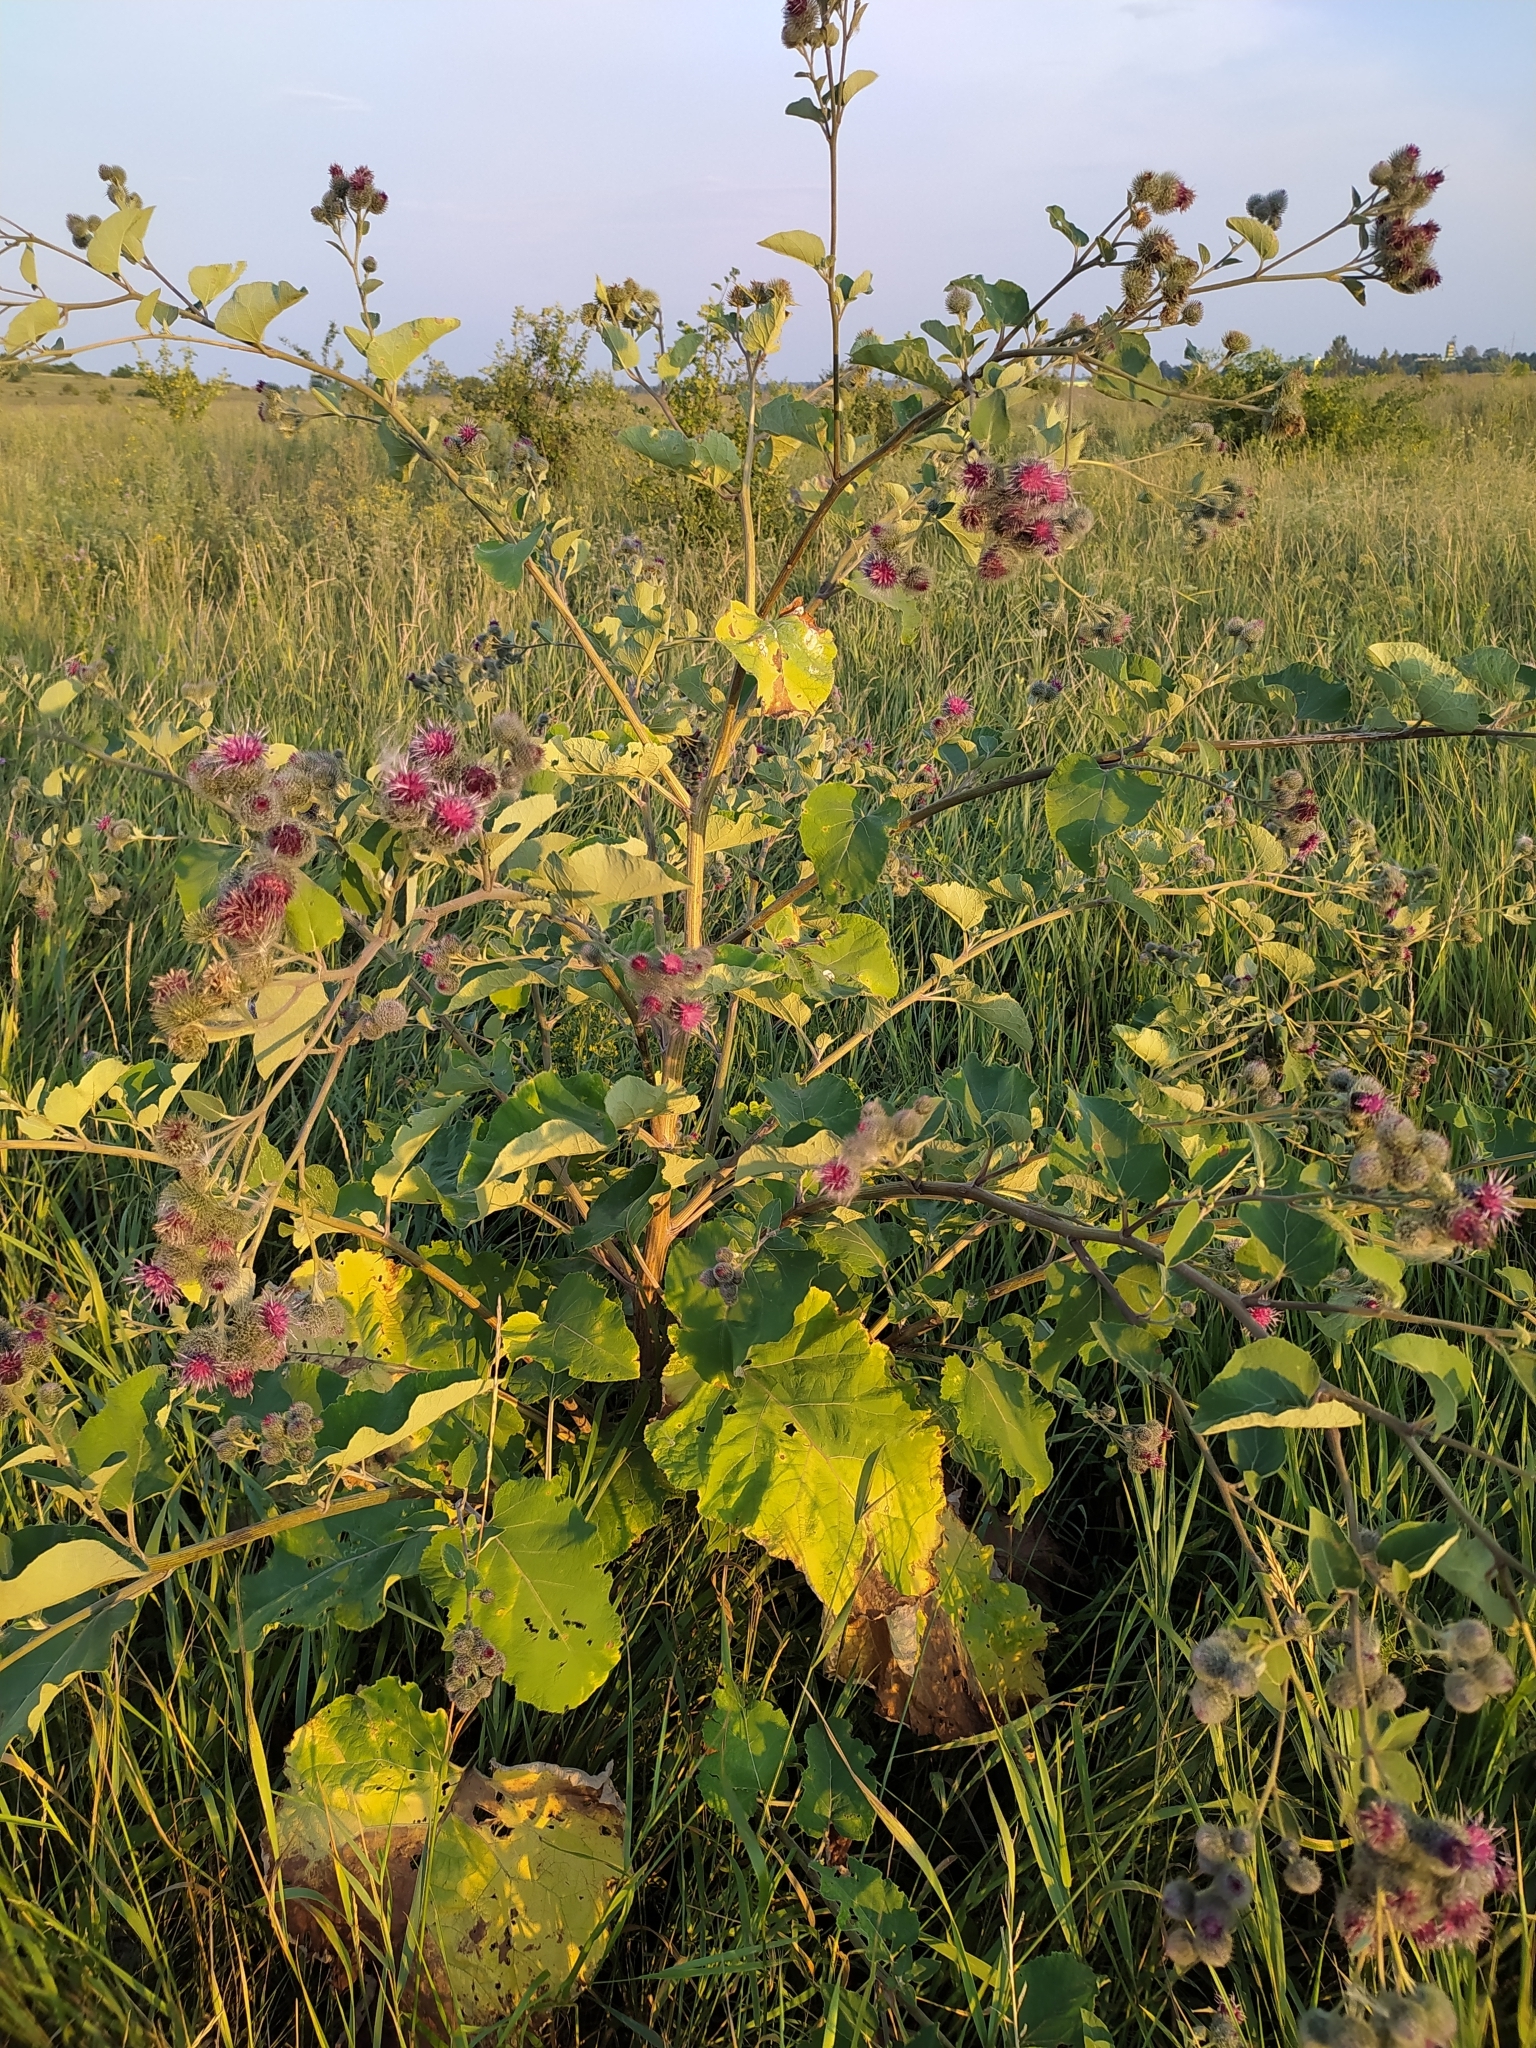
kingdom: Plantae
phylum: Tracheophyta
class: Magnoliopsida
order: Asterales
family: Asteraceae
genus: Arctium
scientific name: Arctium tomentosum
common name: Woolly burdock
